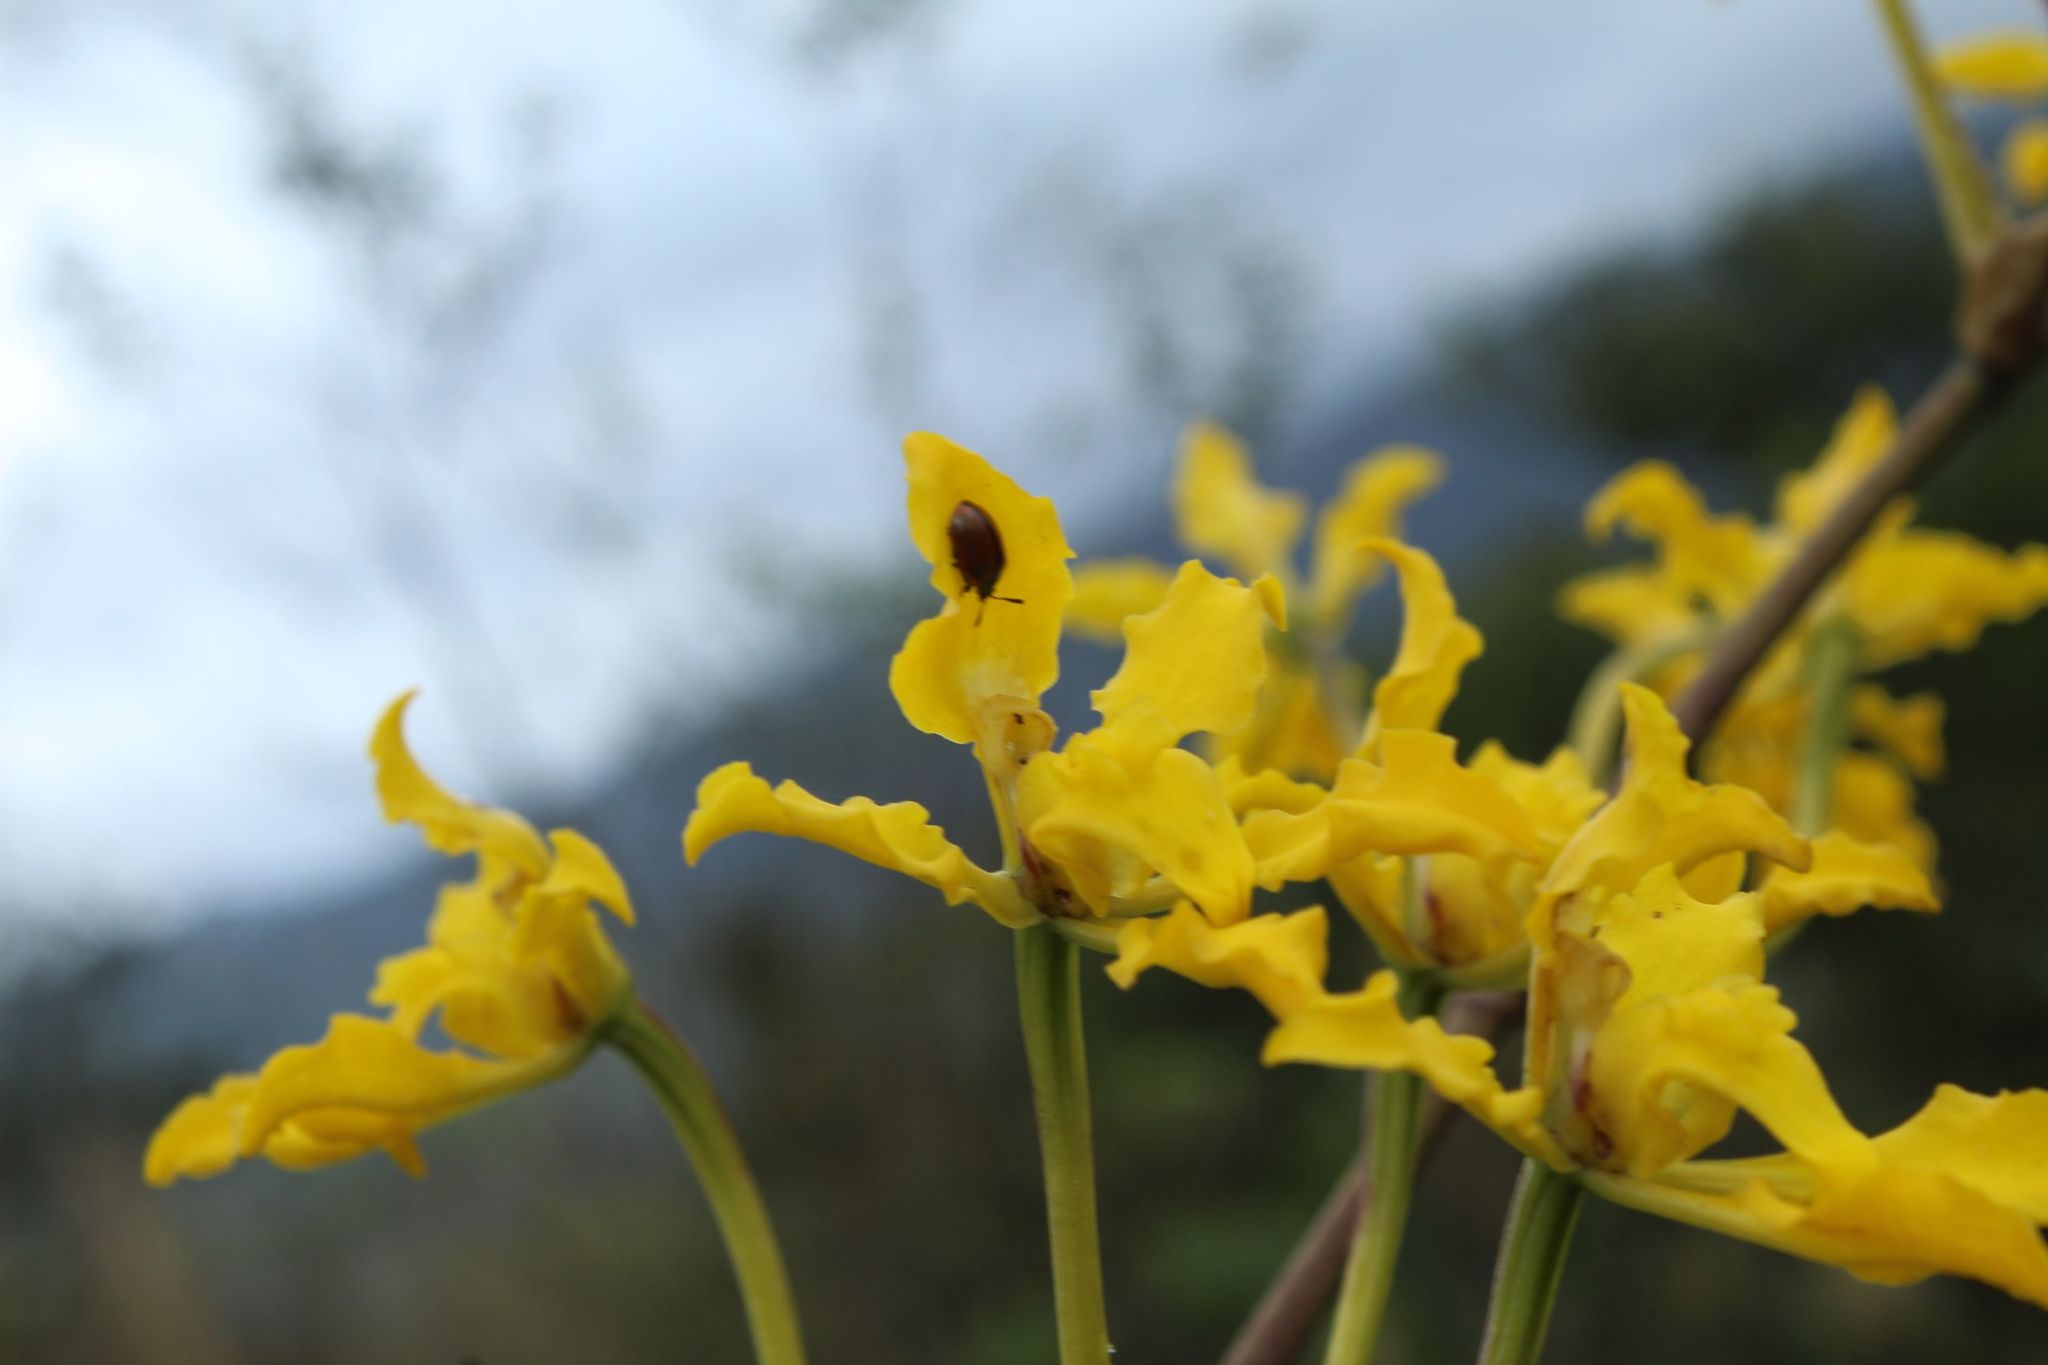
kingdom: Plantae
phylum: Tracheophyta
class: Liliopsida
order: Asparagales
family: Orchidaceae
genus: Cyrtochilum
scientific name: Cyrtochilum revolutum
